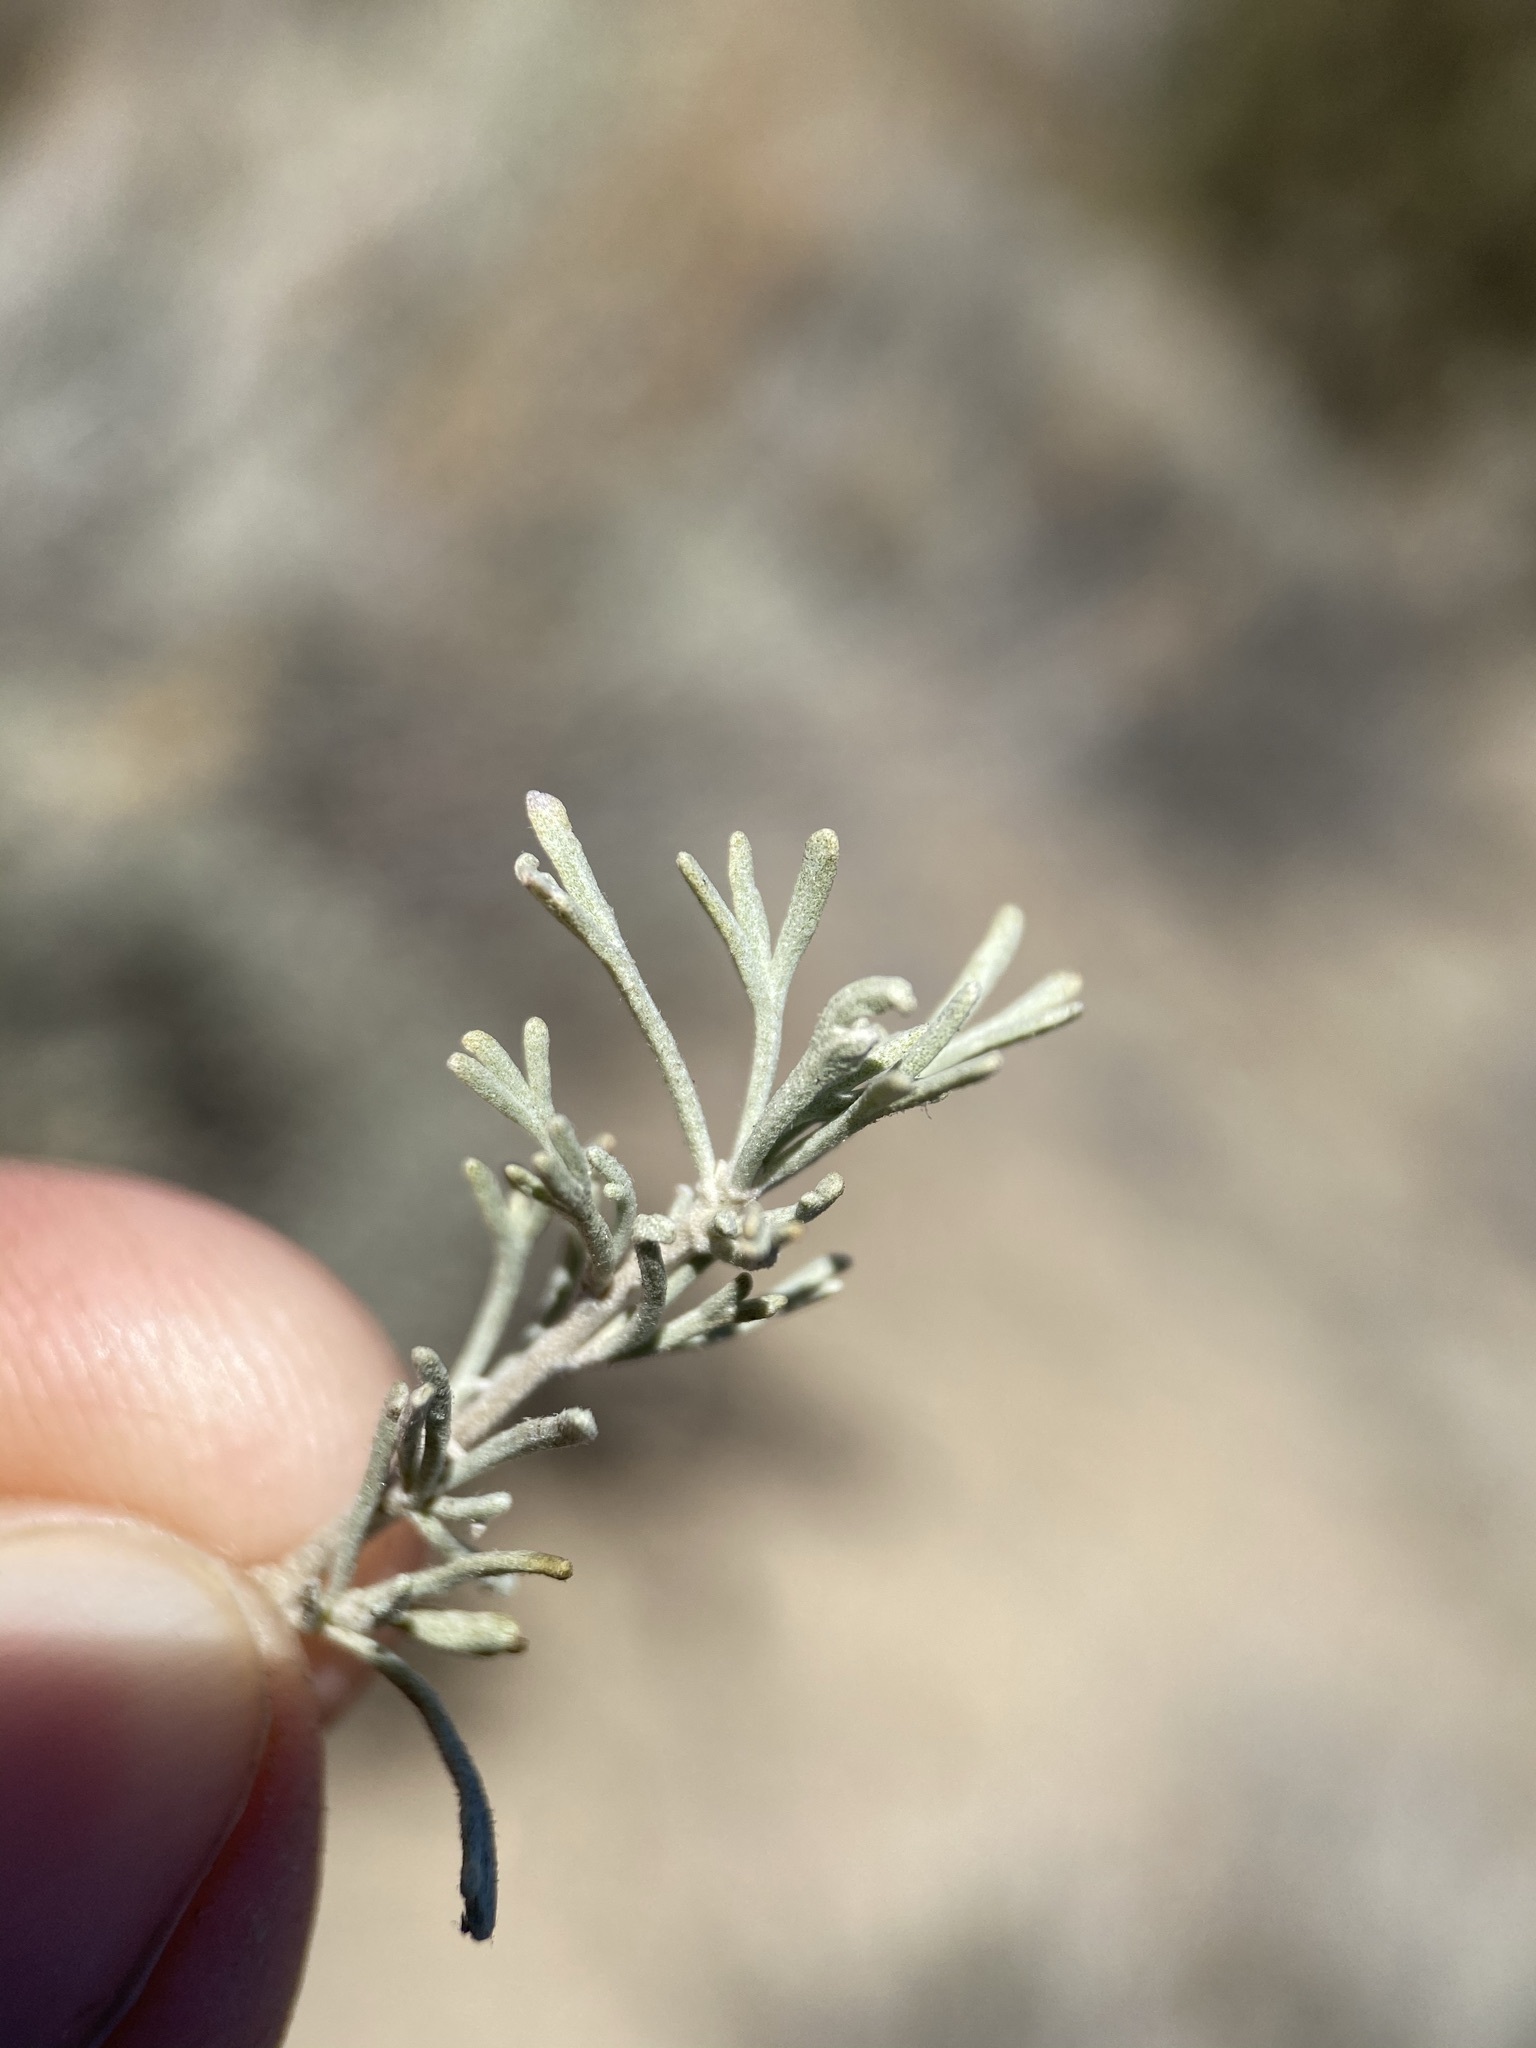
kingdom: Plantae
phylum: Tracheophyta
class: Magnoliopsida
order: Asterales
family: Asteraceae
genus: Artemisia
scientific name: Artemisia tripartita
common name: Three-tip sagebrush
